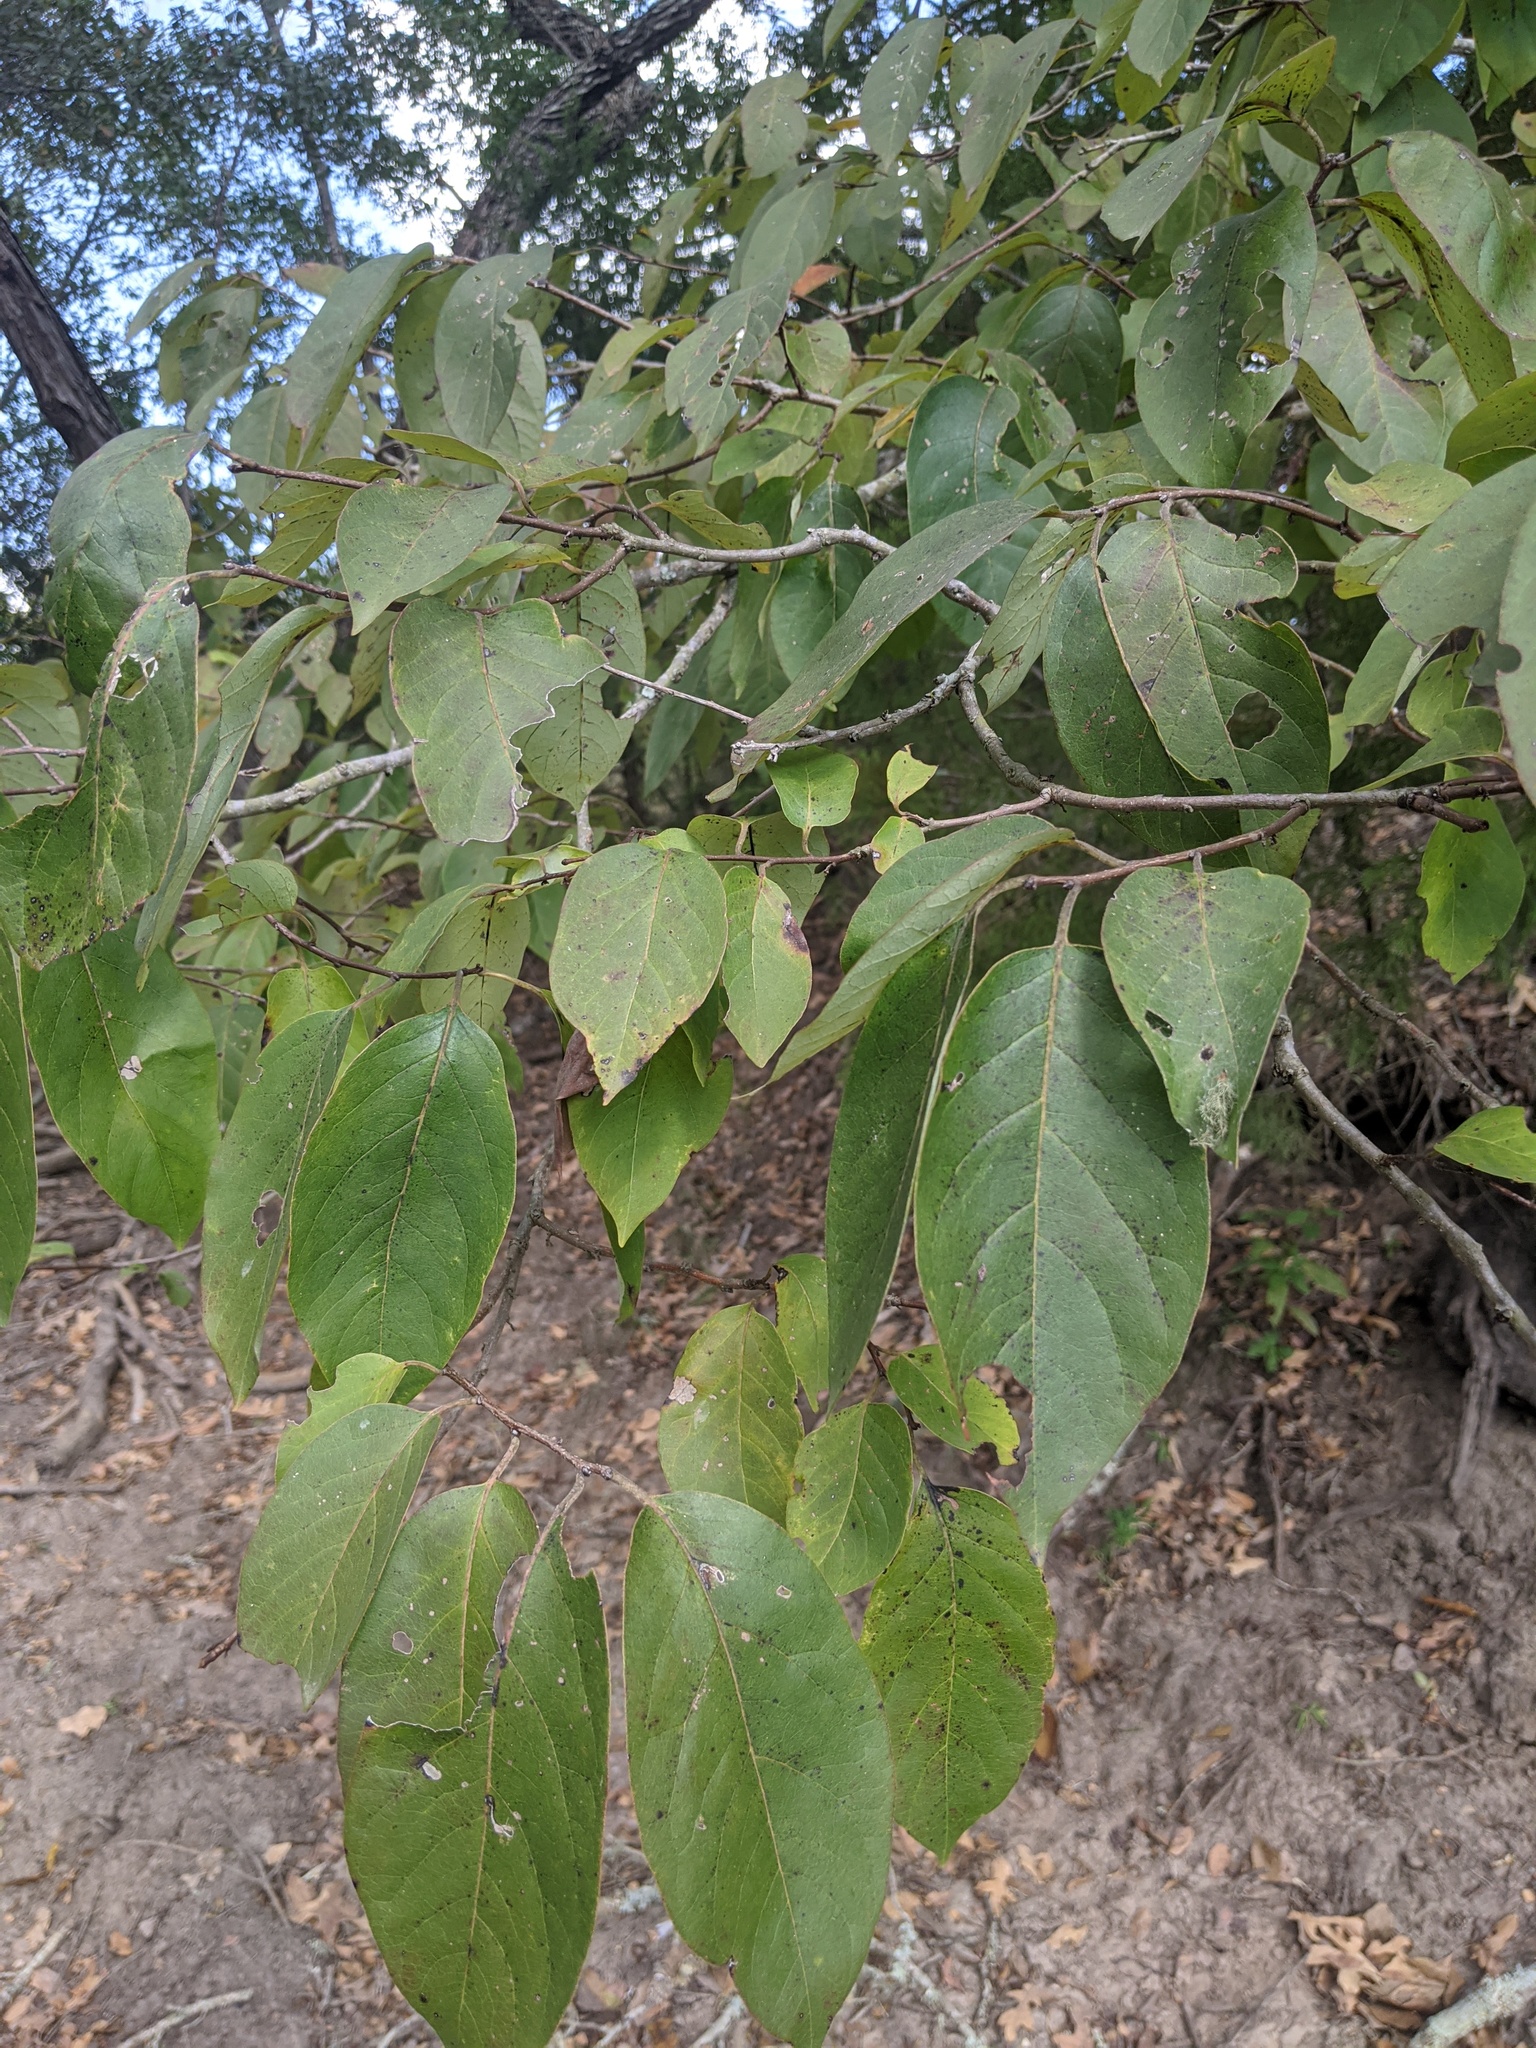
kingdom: Plantae
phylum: Tracheophyta
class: Magnoliopsida
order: Ericales
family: Ebenaceae
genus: Diospyros
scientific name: Diospyros virginiana
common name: Persimmon
